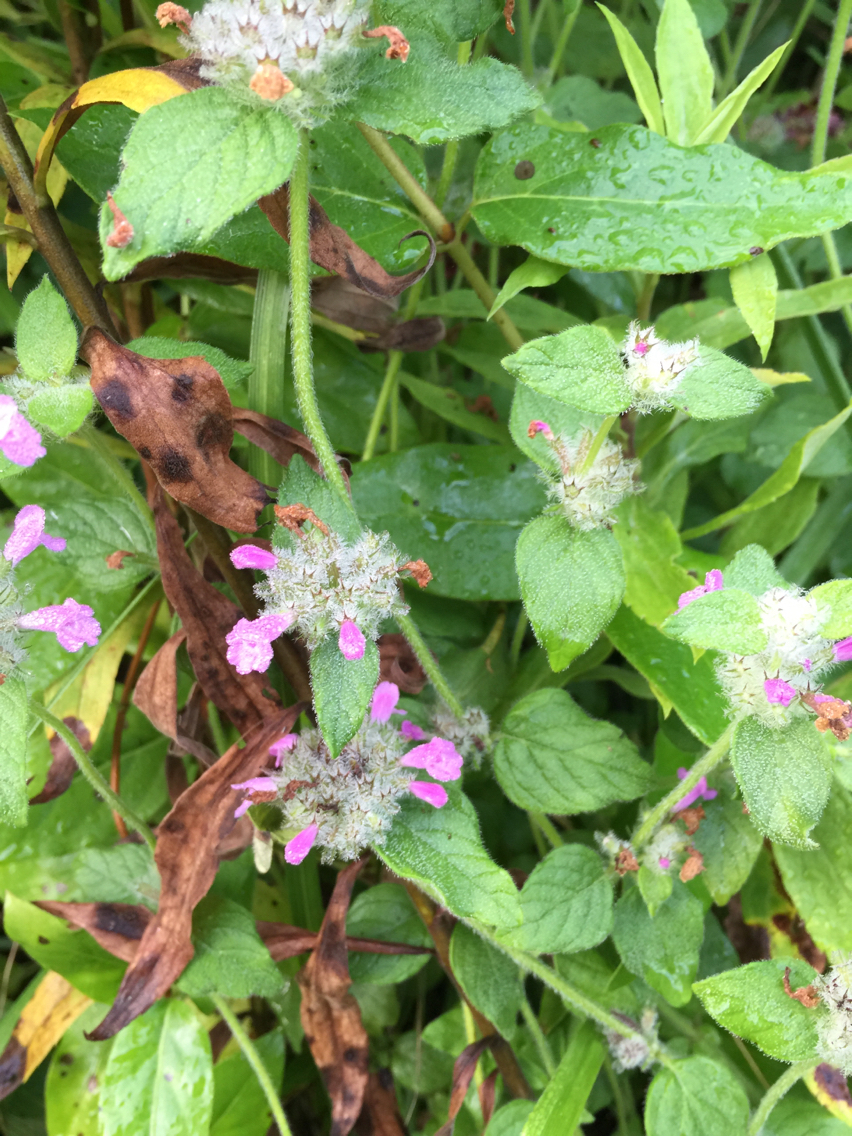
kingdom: Plantae
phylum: Tracheophyta
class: Magnoliopsida
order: Lamiales
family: Lamiaceae
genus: Clinopodium
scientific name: Clinopodium vulgare
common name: Wild basil
